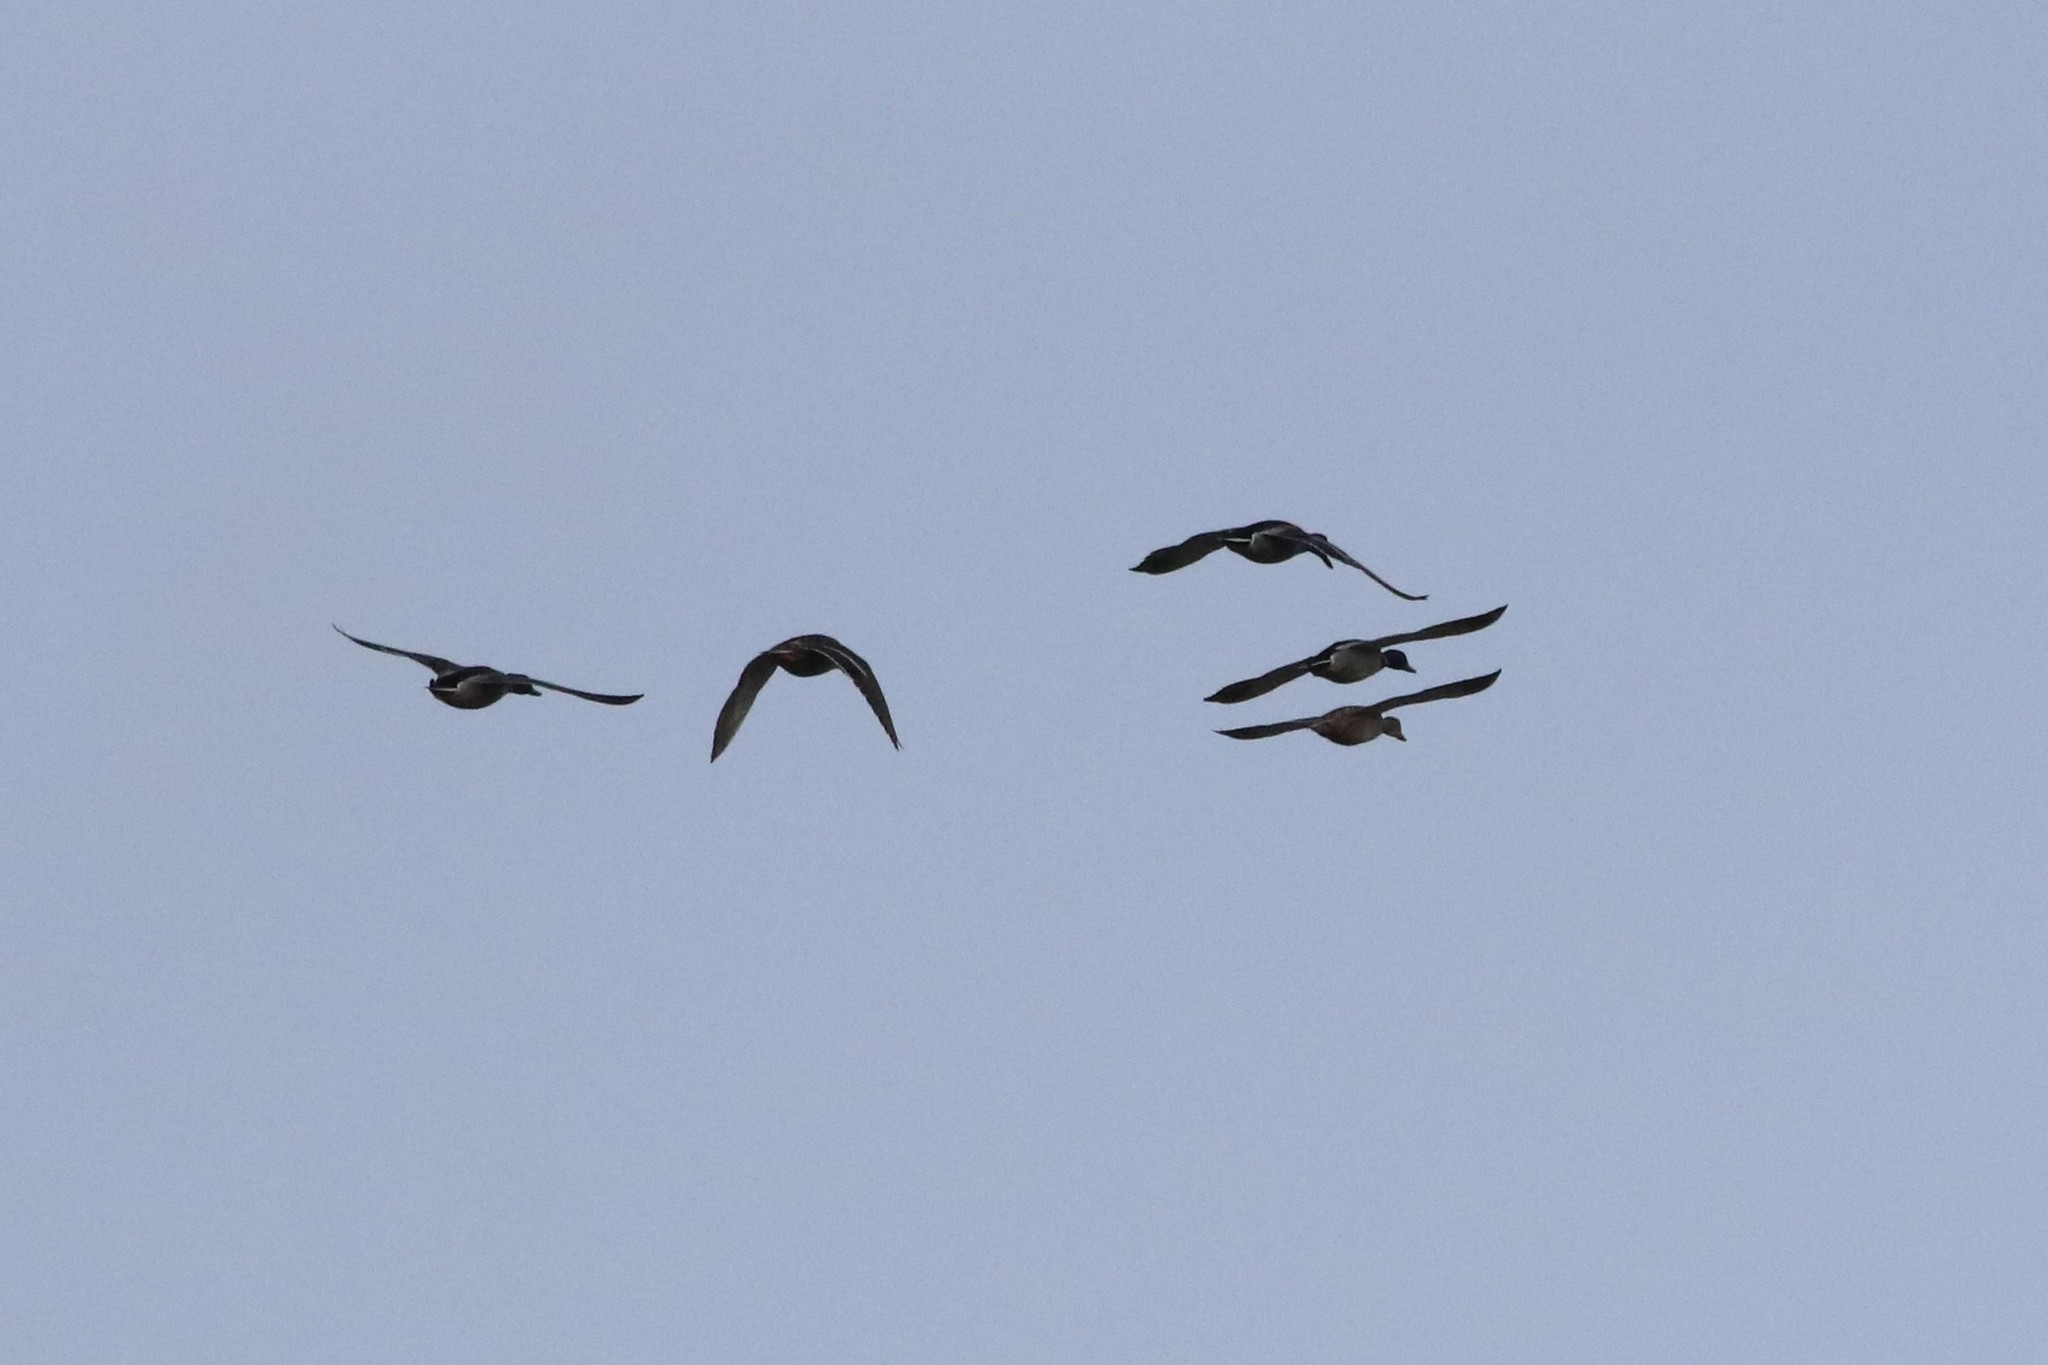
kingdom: Animalia
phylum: Chordata
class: Aves
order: Anseriformes
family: Anatidae
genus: Anas
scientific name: Anas platyrhynchos
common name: Mallard
